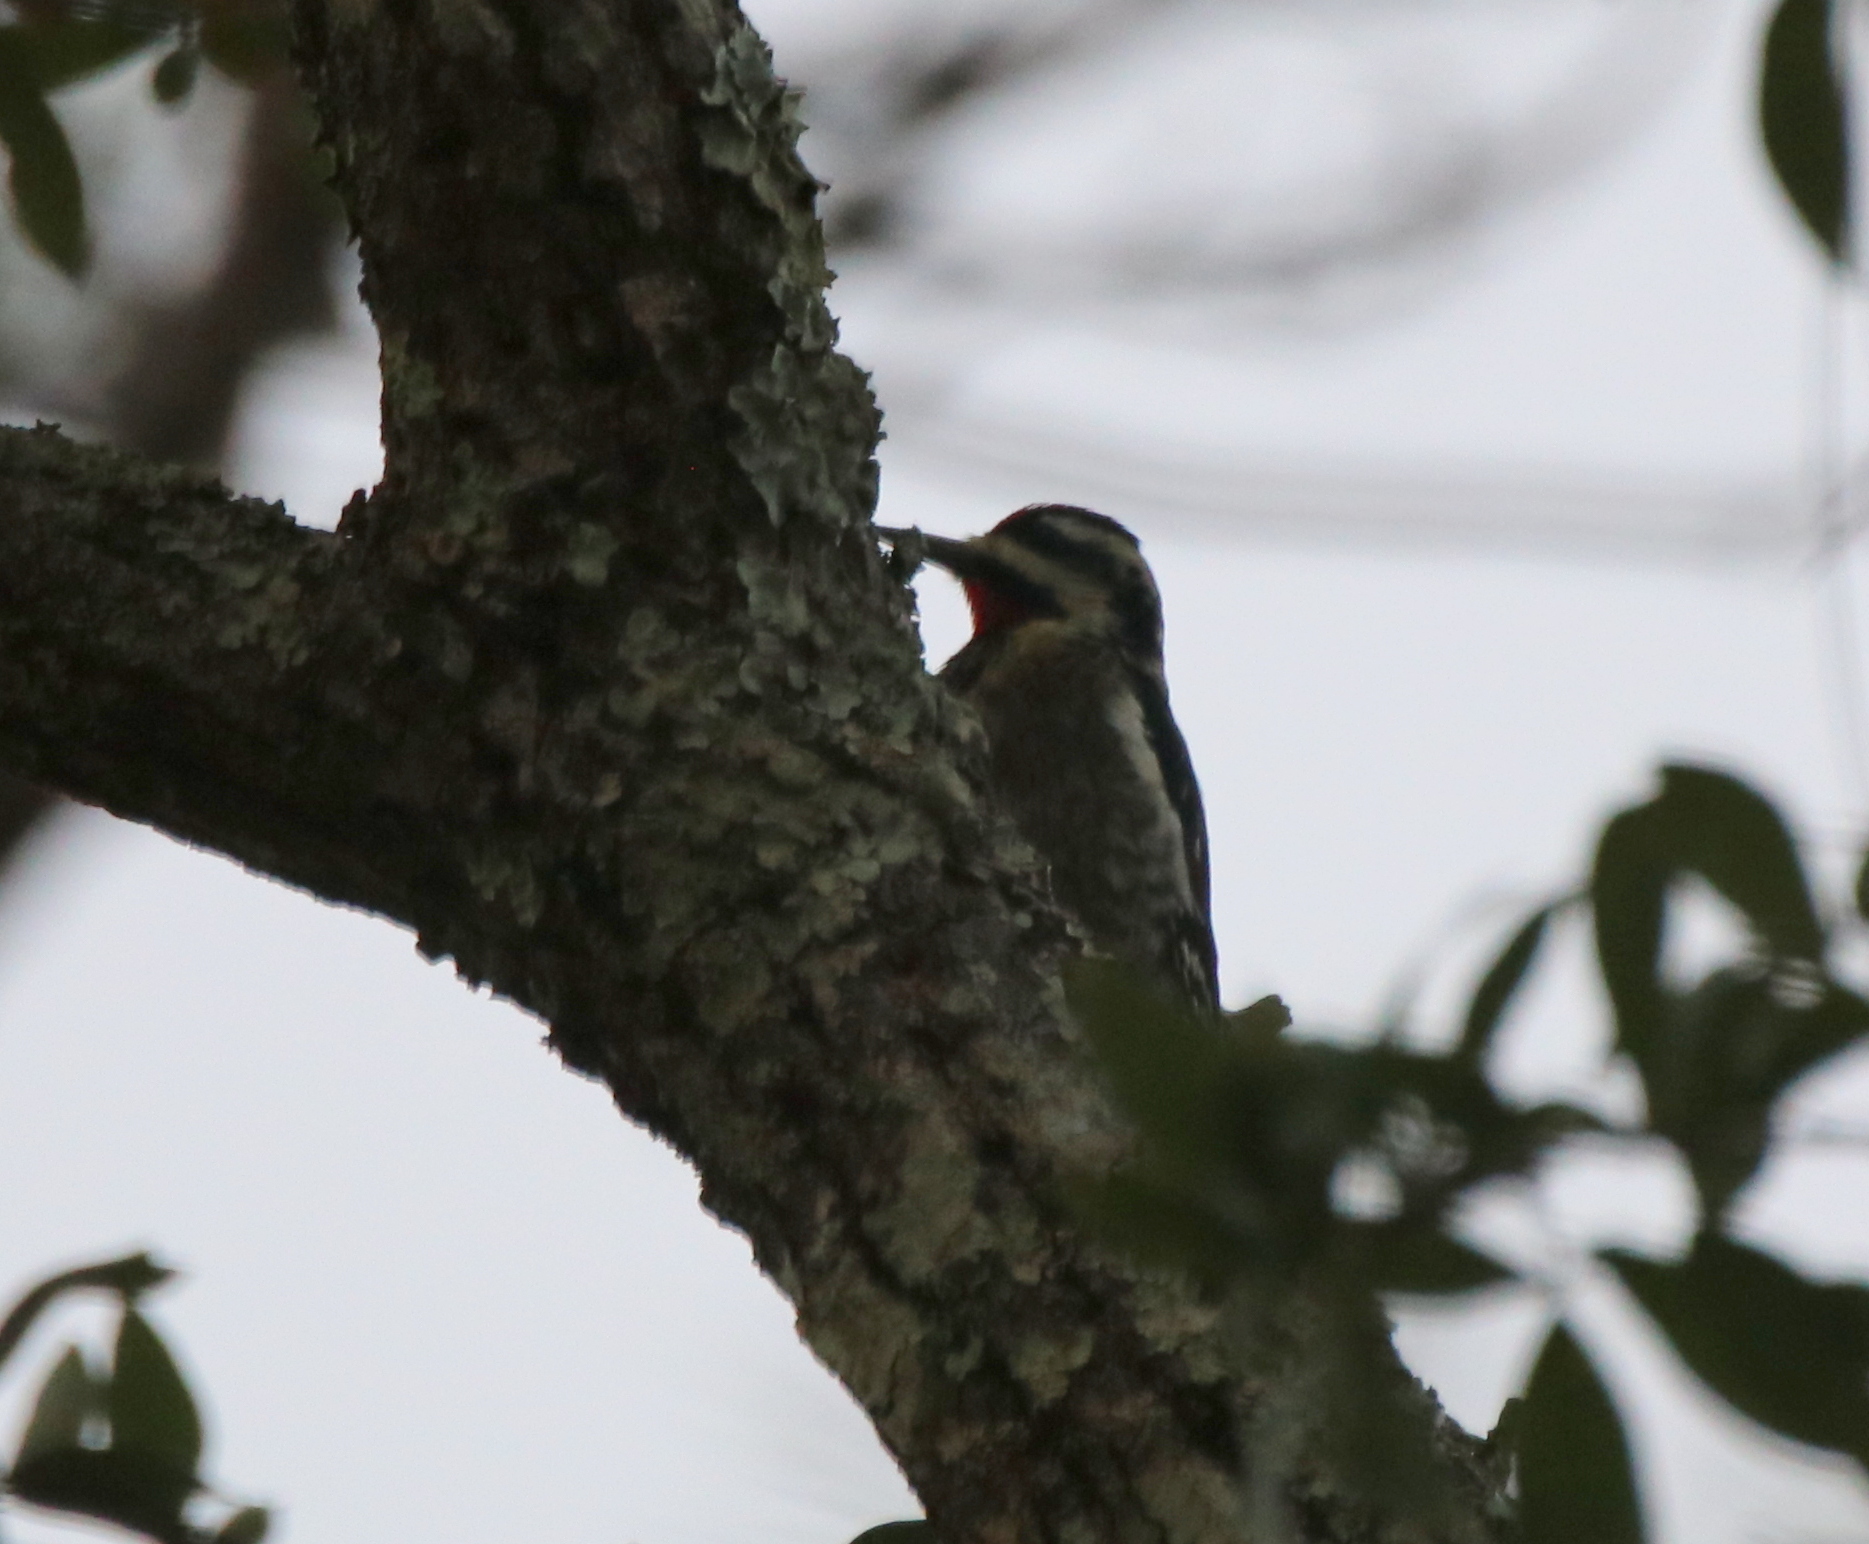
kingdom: Animalia
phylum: Chordata
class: Aves
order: Piciformes
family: Picidae
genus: Sphyrapicus
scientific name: Sphyrapicus varius
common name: Yellow-bellied sapsucker
